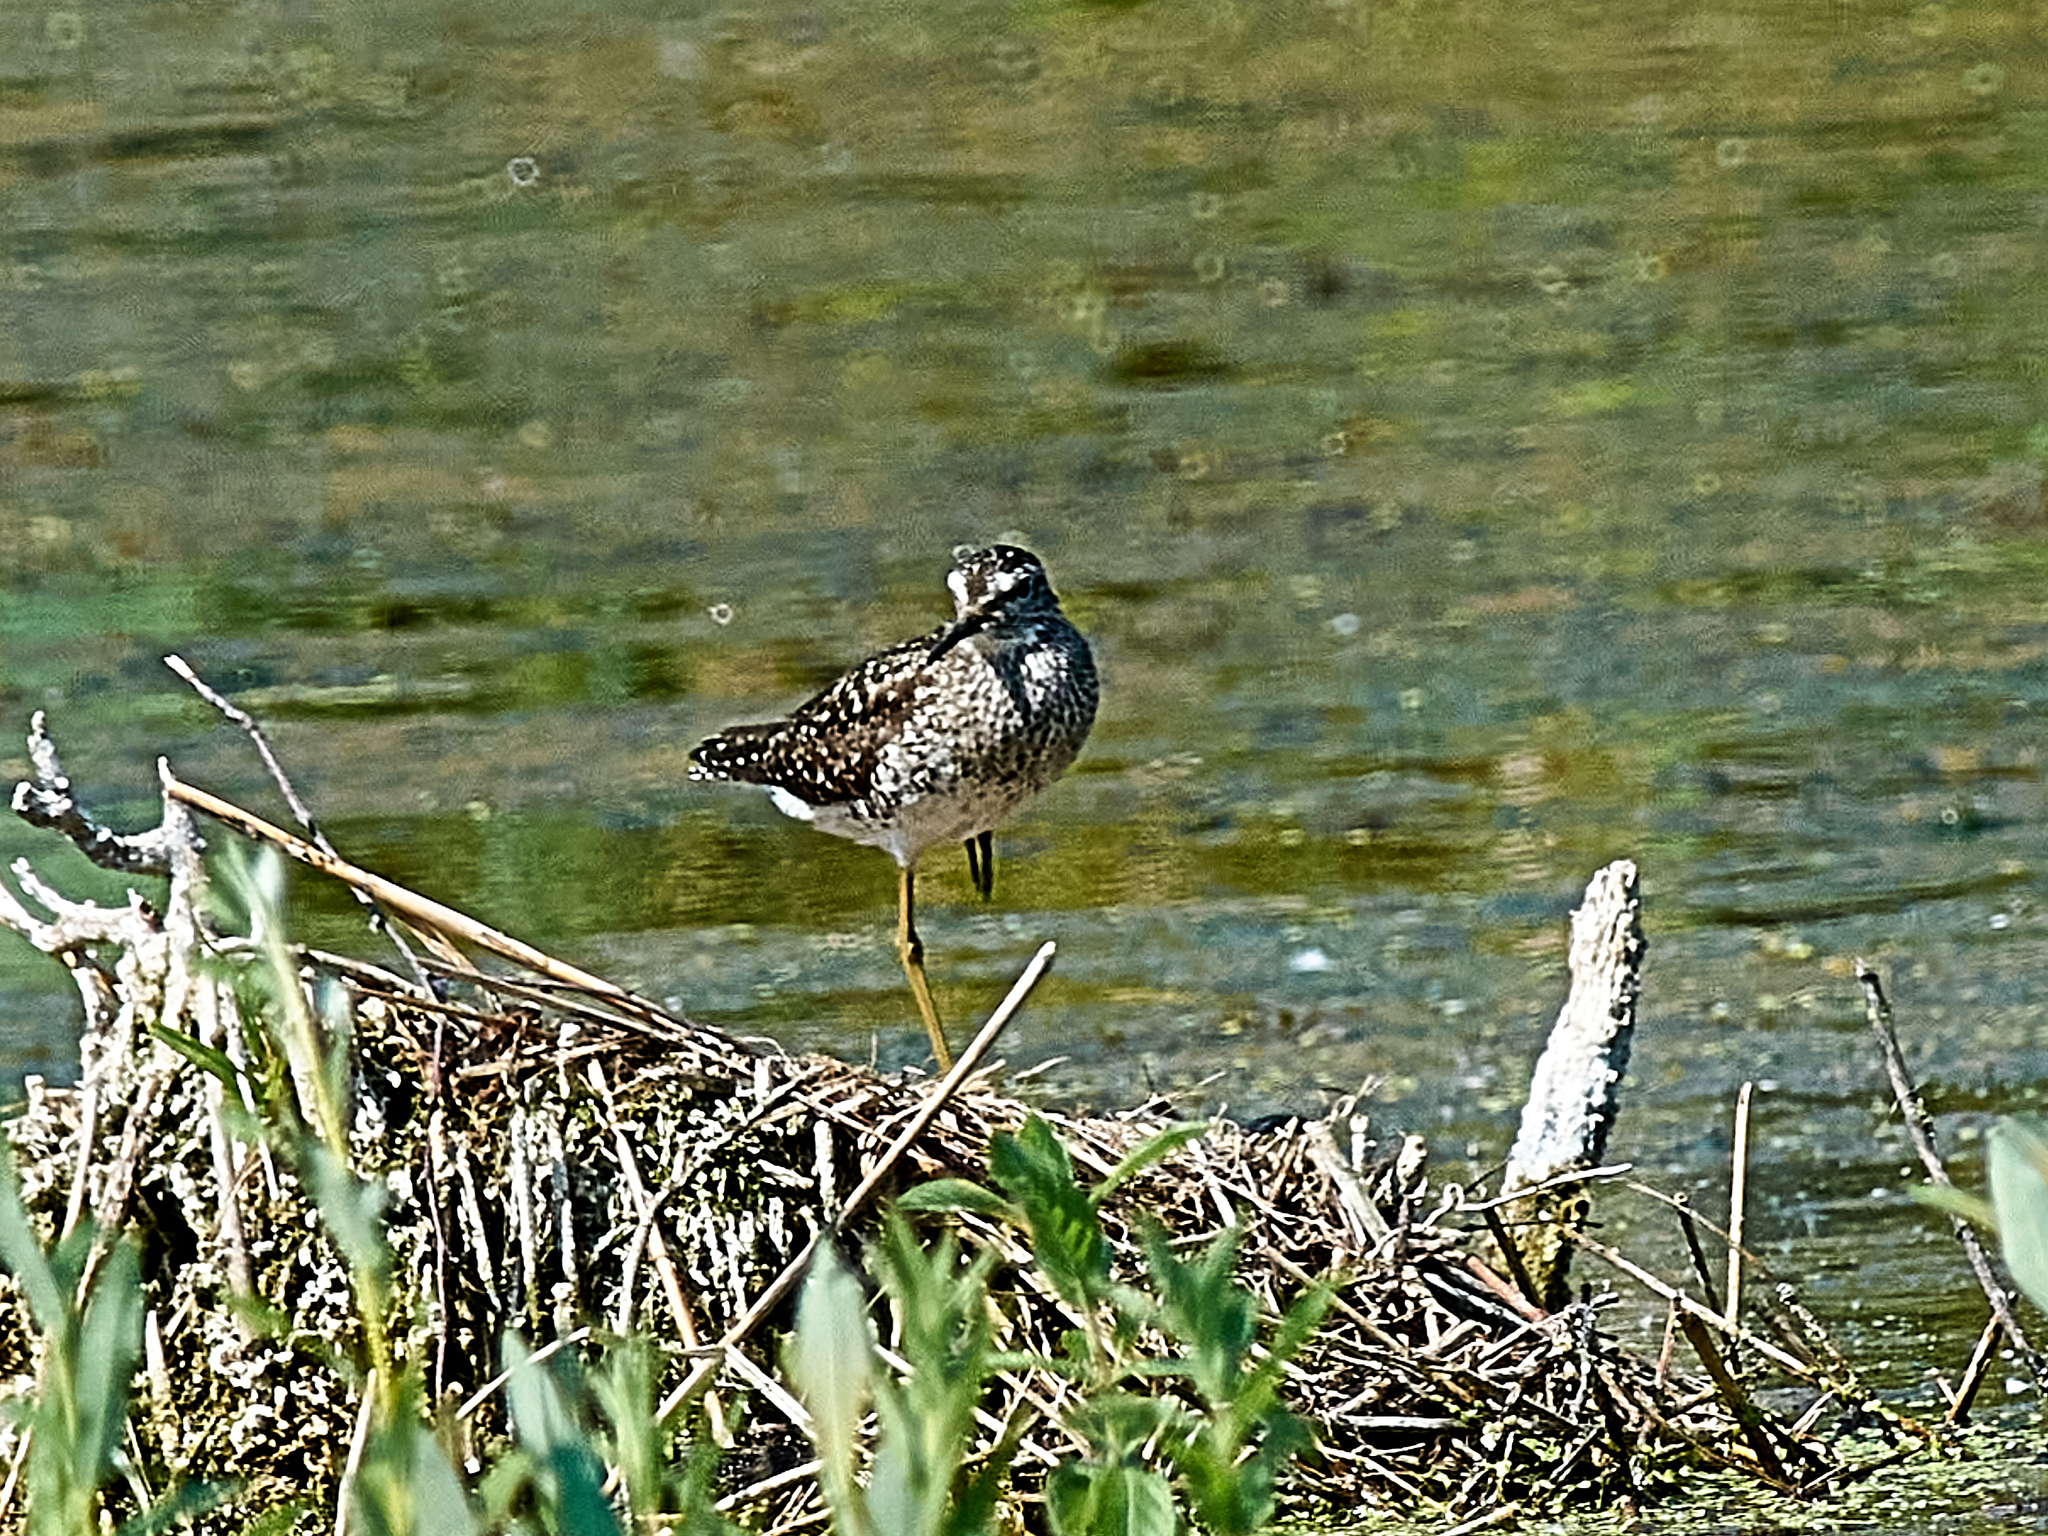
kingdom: Animalia
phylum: Chordata
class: Aves
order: Charadriiformes
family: Scolopacidae
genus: Tringa
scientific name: Tringa glareola
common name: Wood sandpiper
